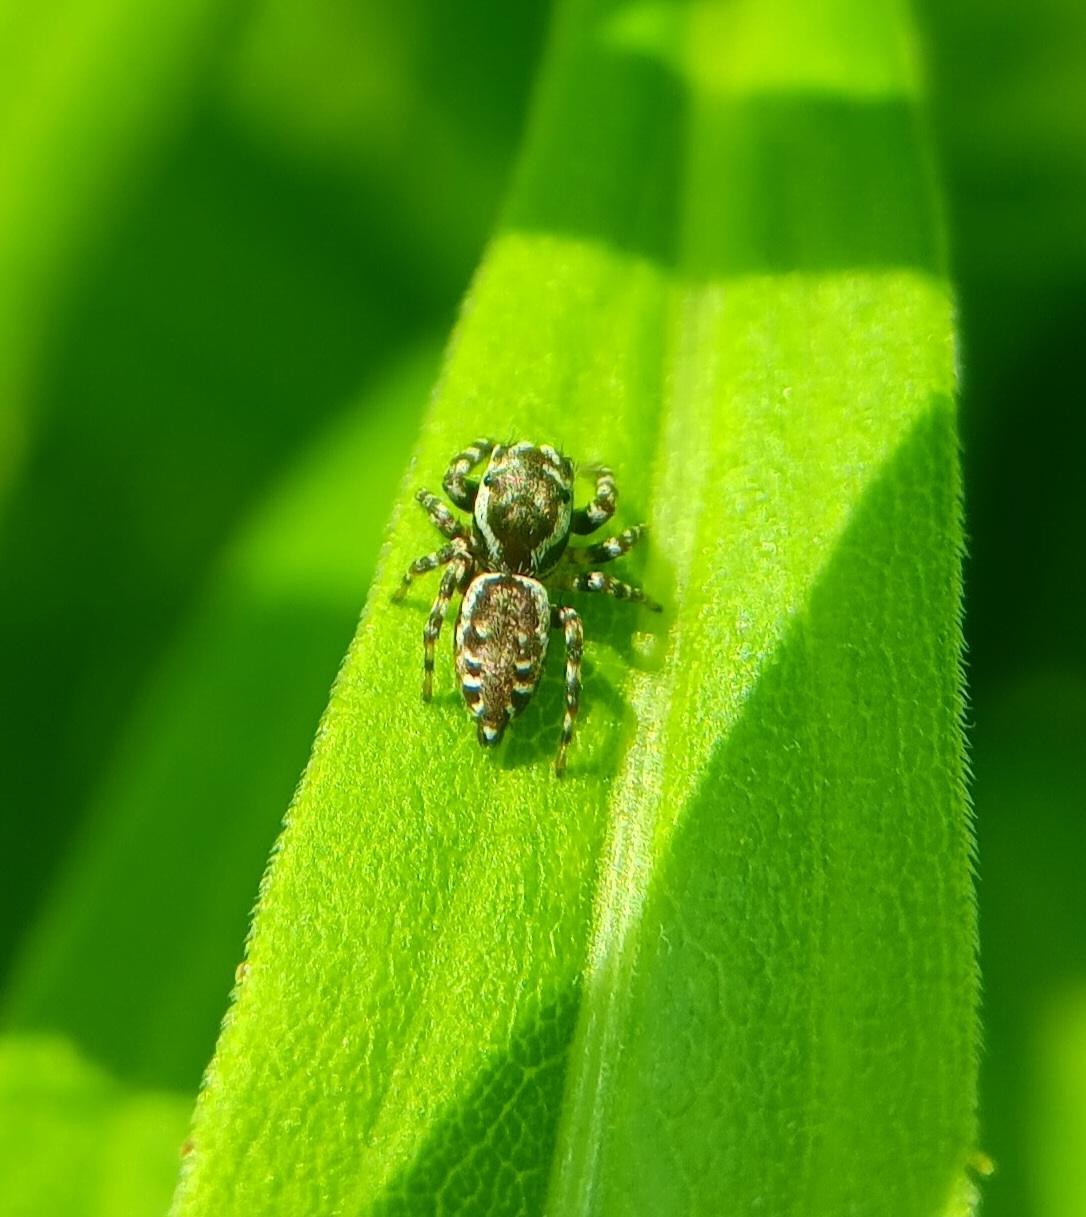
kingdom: Animalia
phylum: Arthropoda
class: Arachnida
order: Araneae
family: Salticidae
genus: Pelegrina
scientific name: Pelegrina galathea
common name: Jumping spiders
